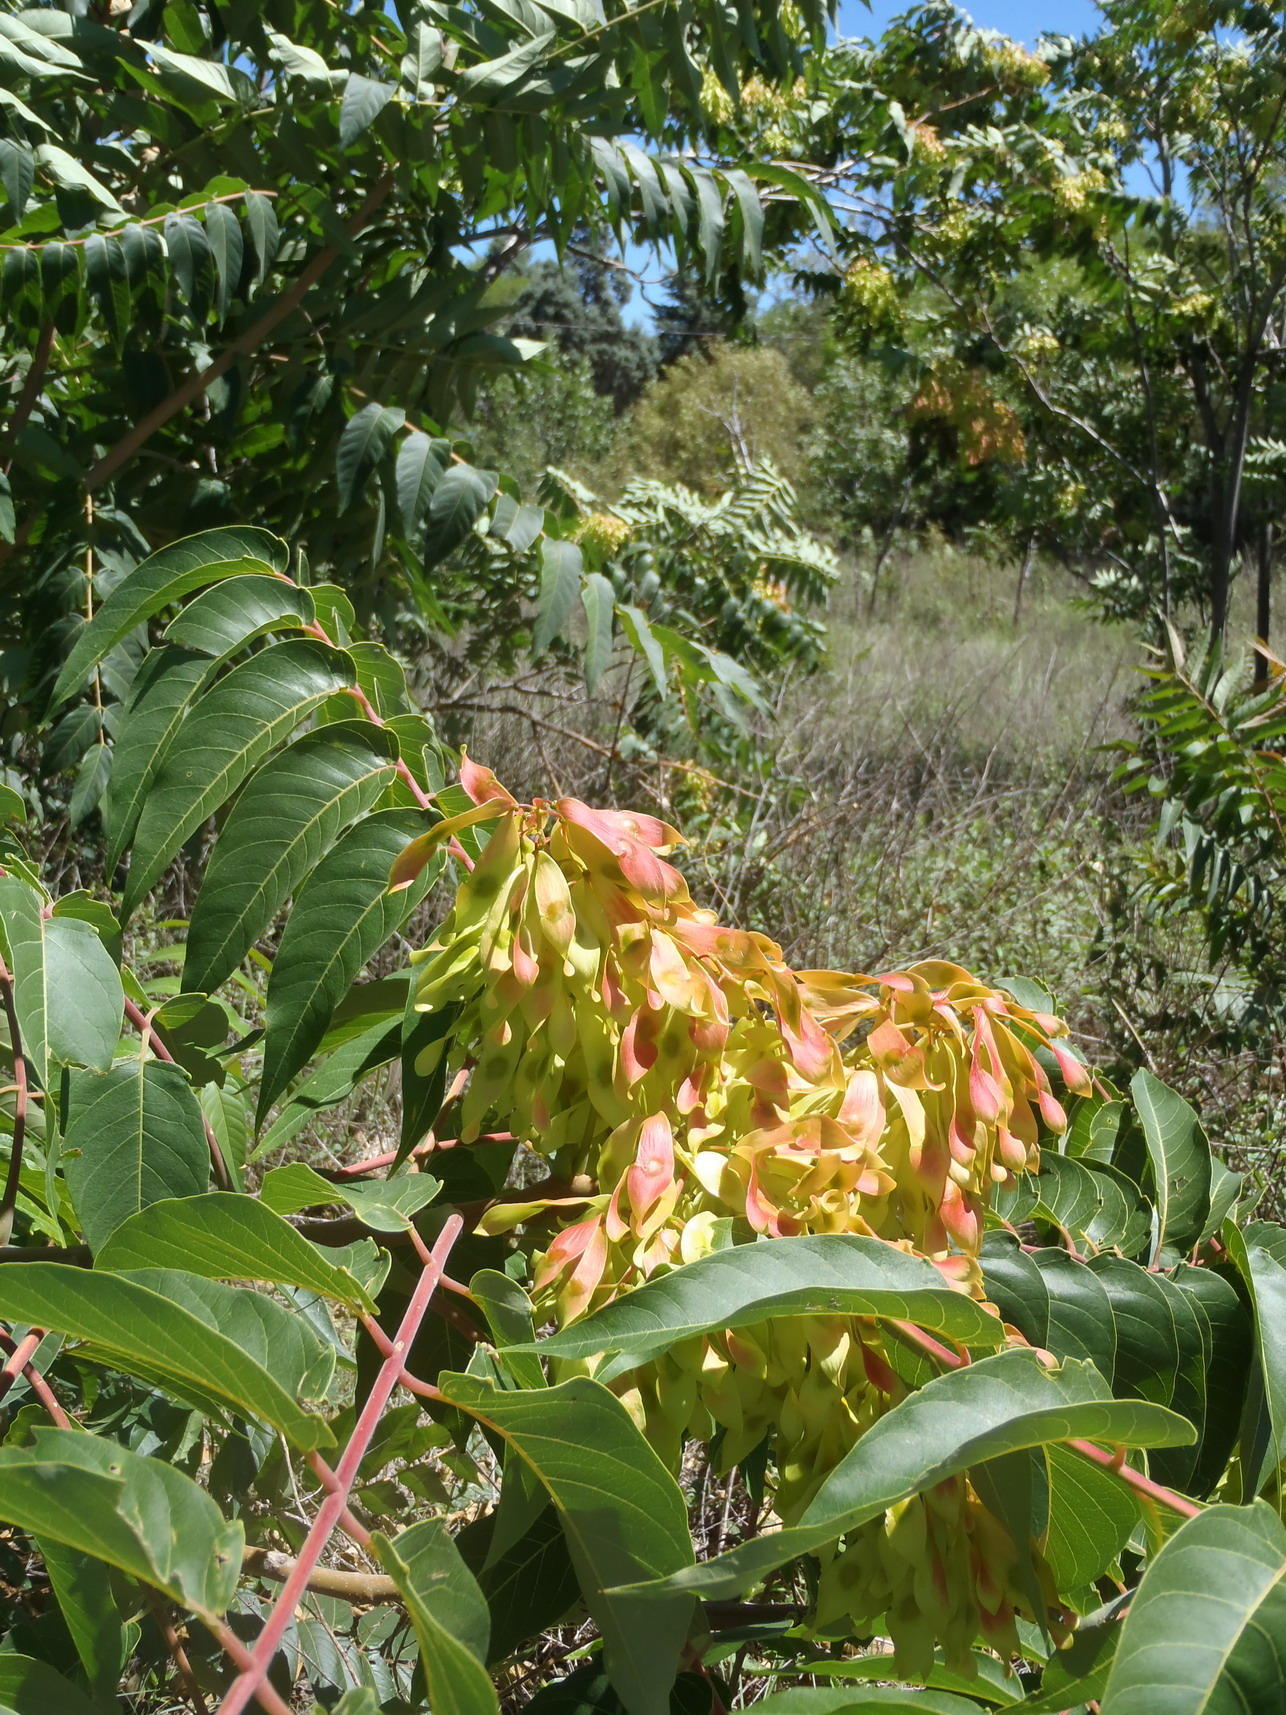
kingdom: Plantae
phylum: Tracheophyta
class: Magnoliopsida
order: Sapindales
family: Simaroubaceae
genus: Ailanthus
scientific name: Ailanthus altissima
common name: Tree-of-heaven
